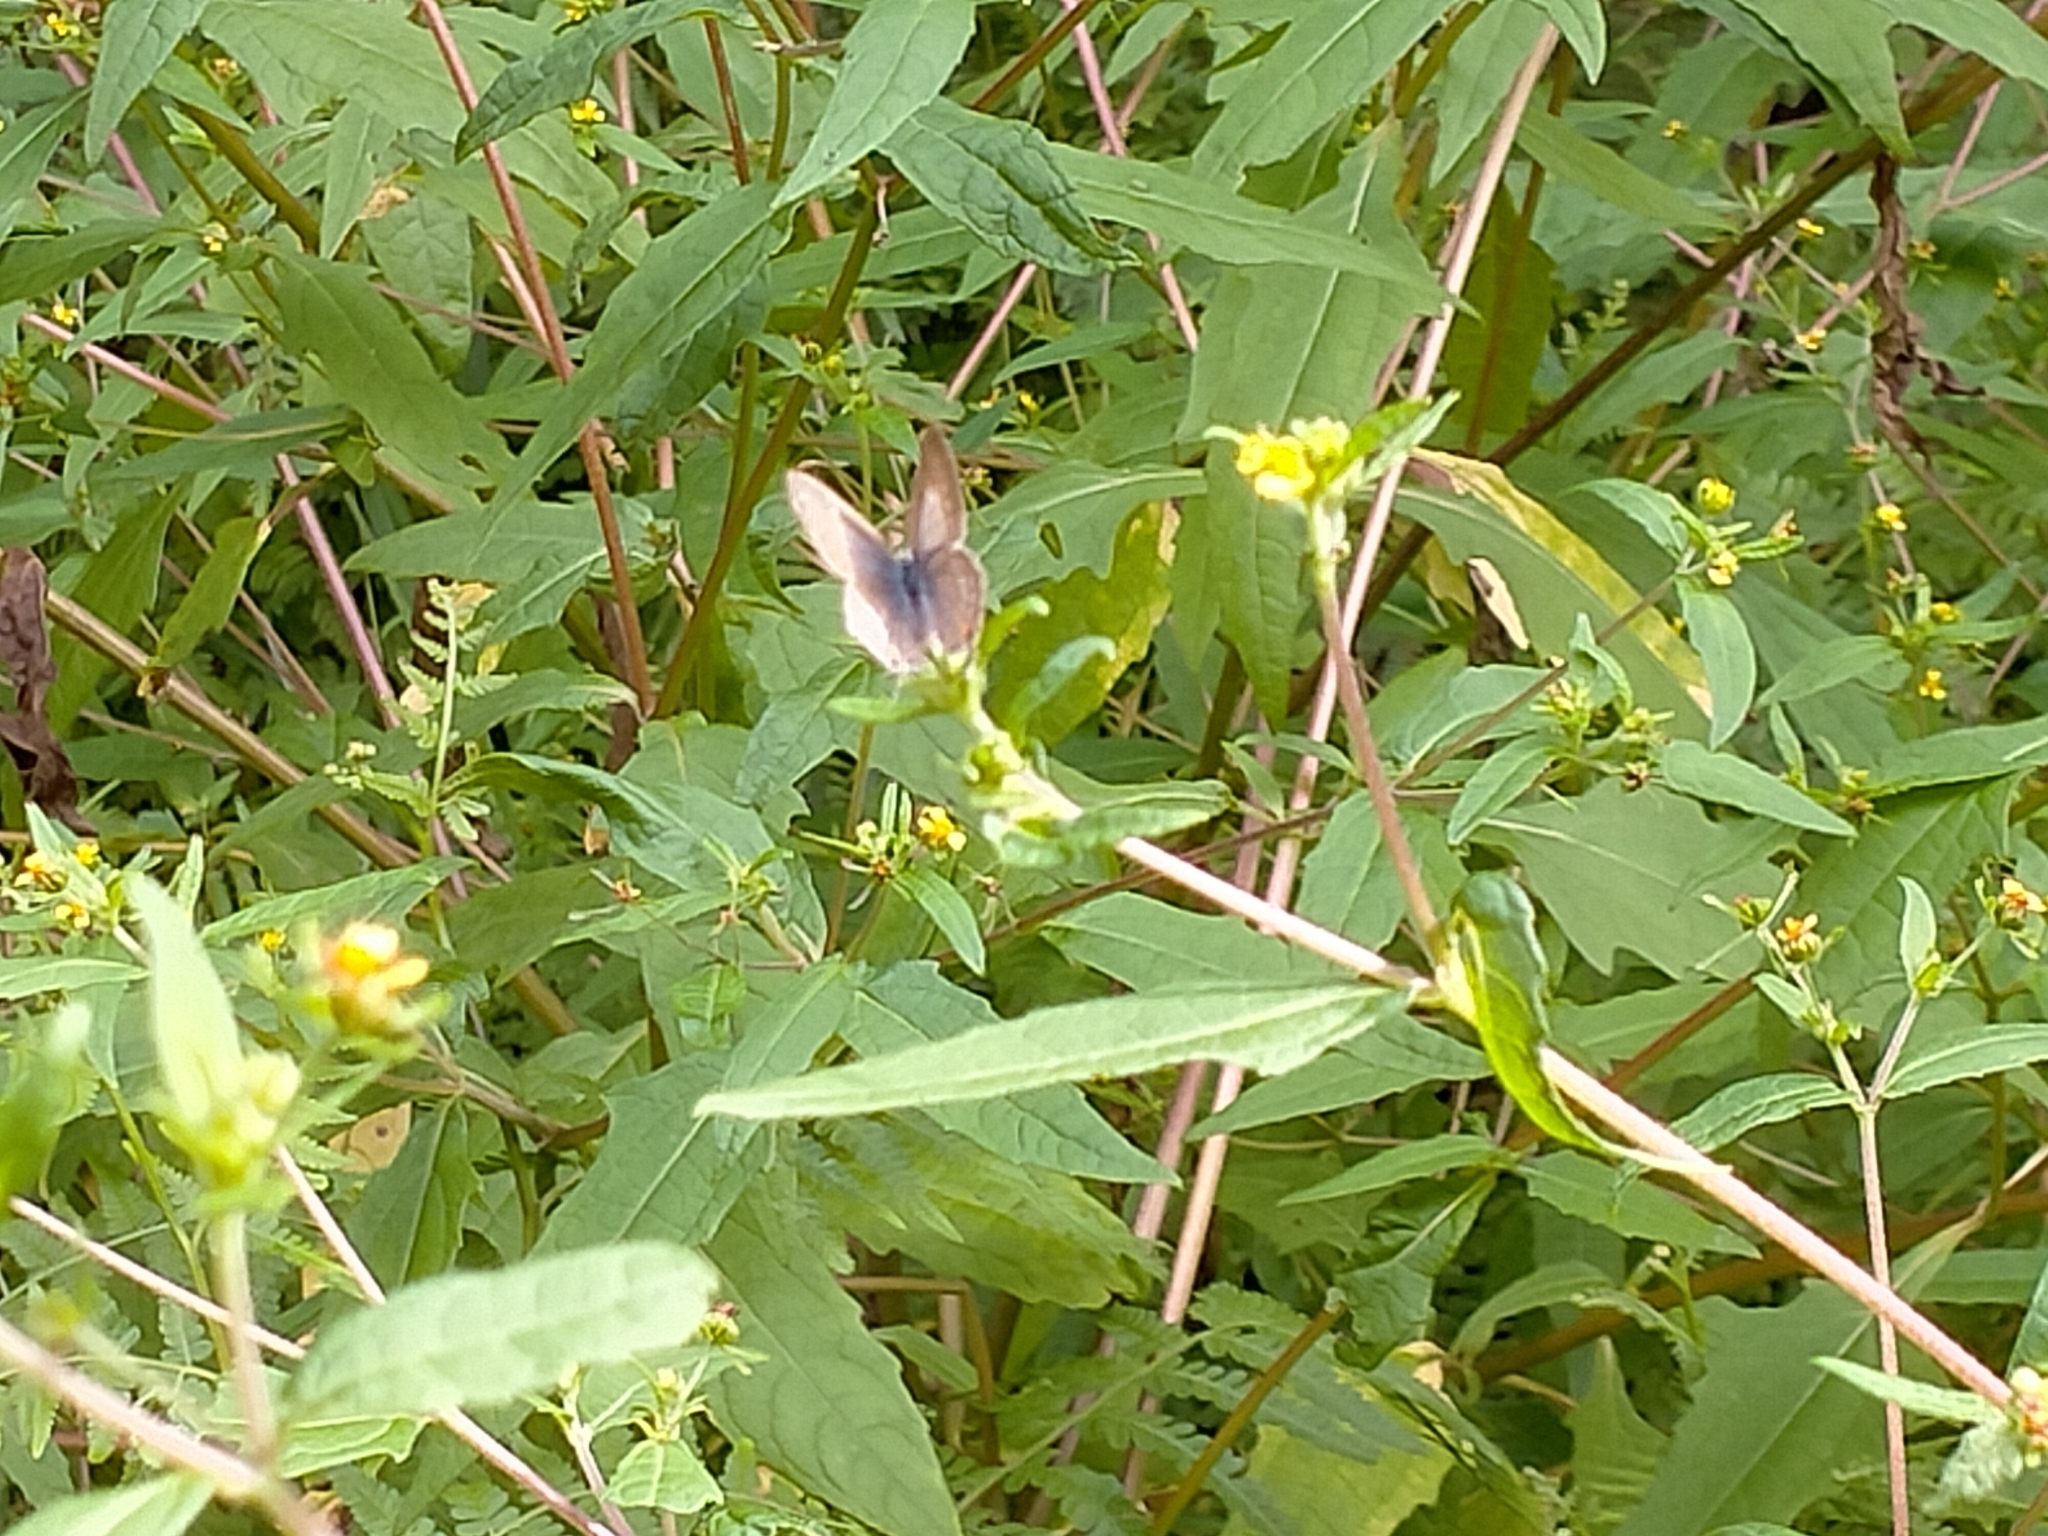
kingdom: Plantae
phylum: Tracheophyta
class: Magnoliopsida
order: Asterales
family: Asteraceae
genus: Sigesbeckia
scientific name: Sigesbeckia orientalis
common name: Eastern st paul's-wort
